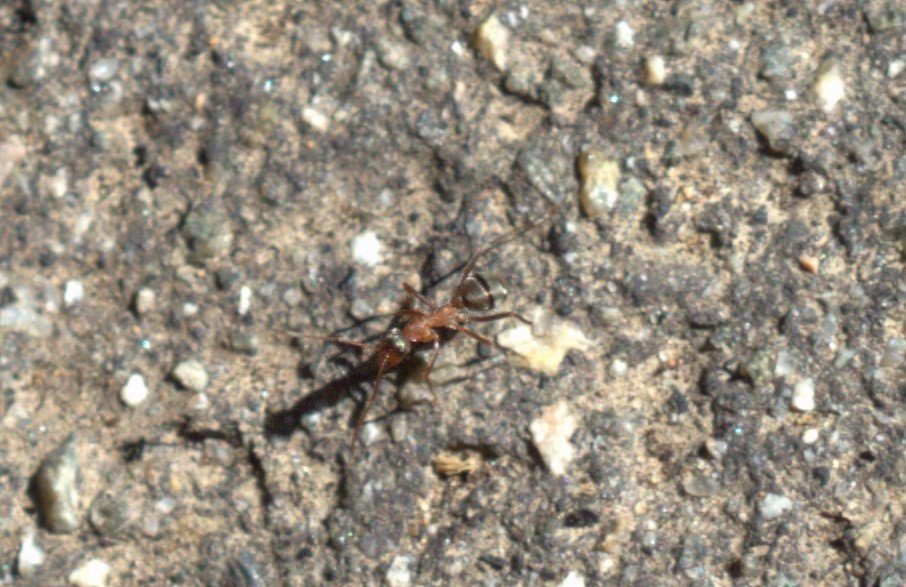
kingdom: Animalia
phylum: Arthropoda
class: Insecta
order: Hymenoptera
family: Formicidae
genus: Formica
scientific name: Formica moki
